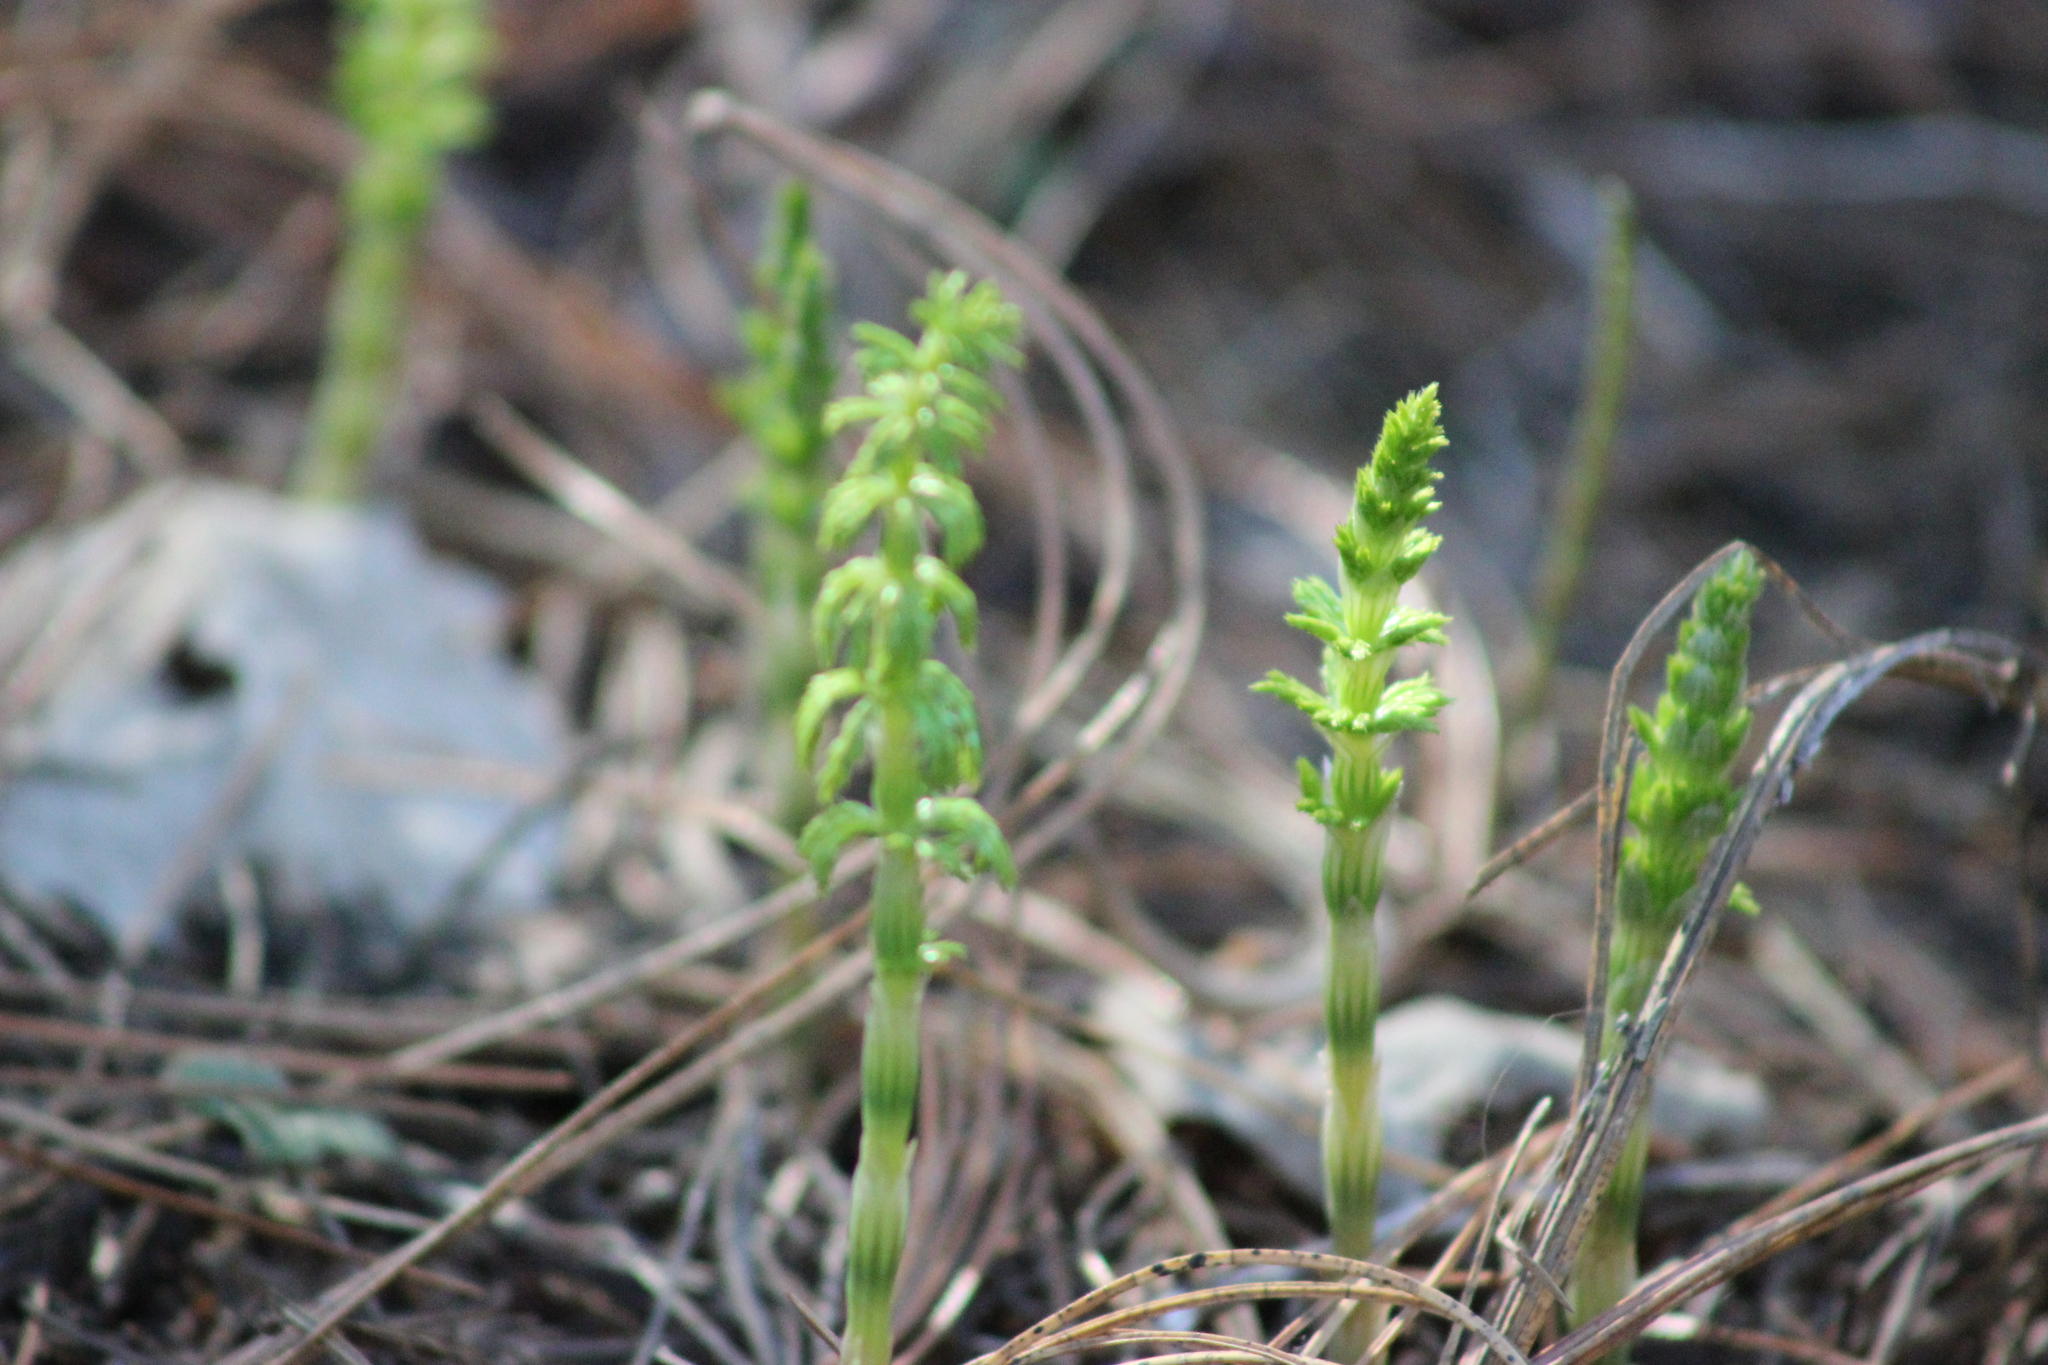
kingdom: Plantae
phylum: Tracheophyta
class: Polypodiopsida
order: Equisetales
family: Equisetaceae
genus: Equisetum
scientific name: Equisetum sylvaticum
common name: Wood horsetail
